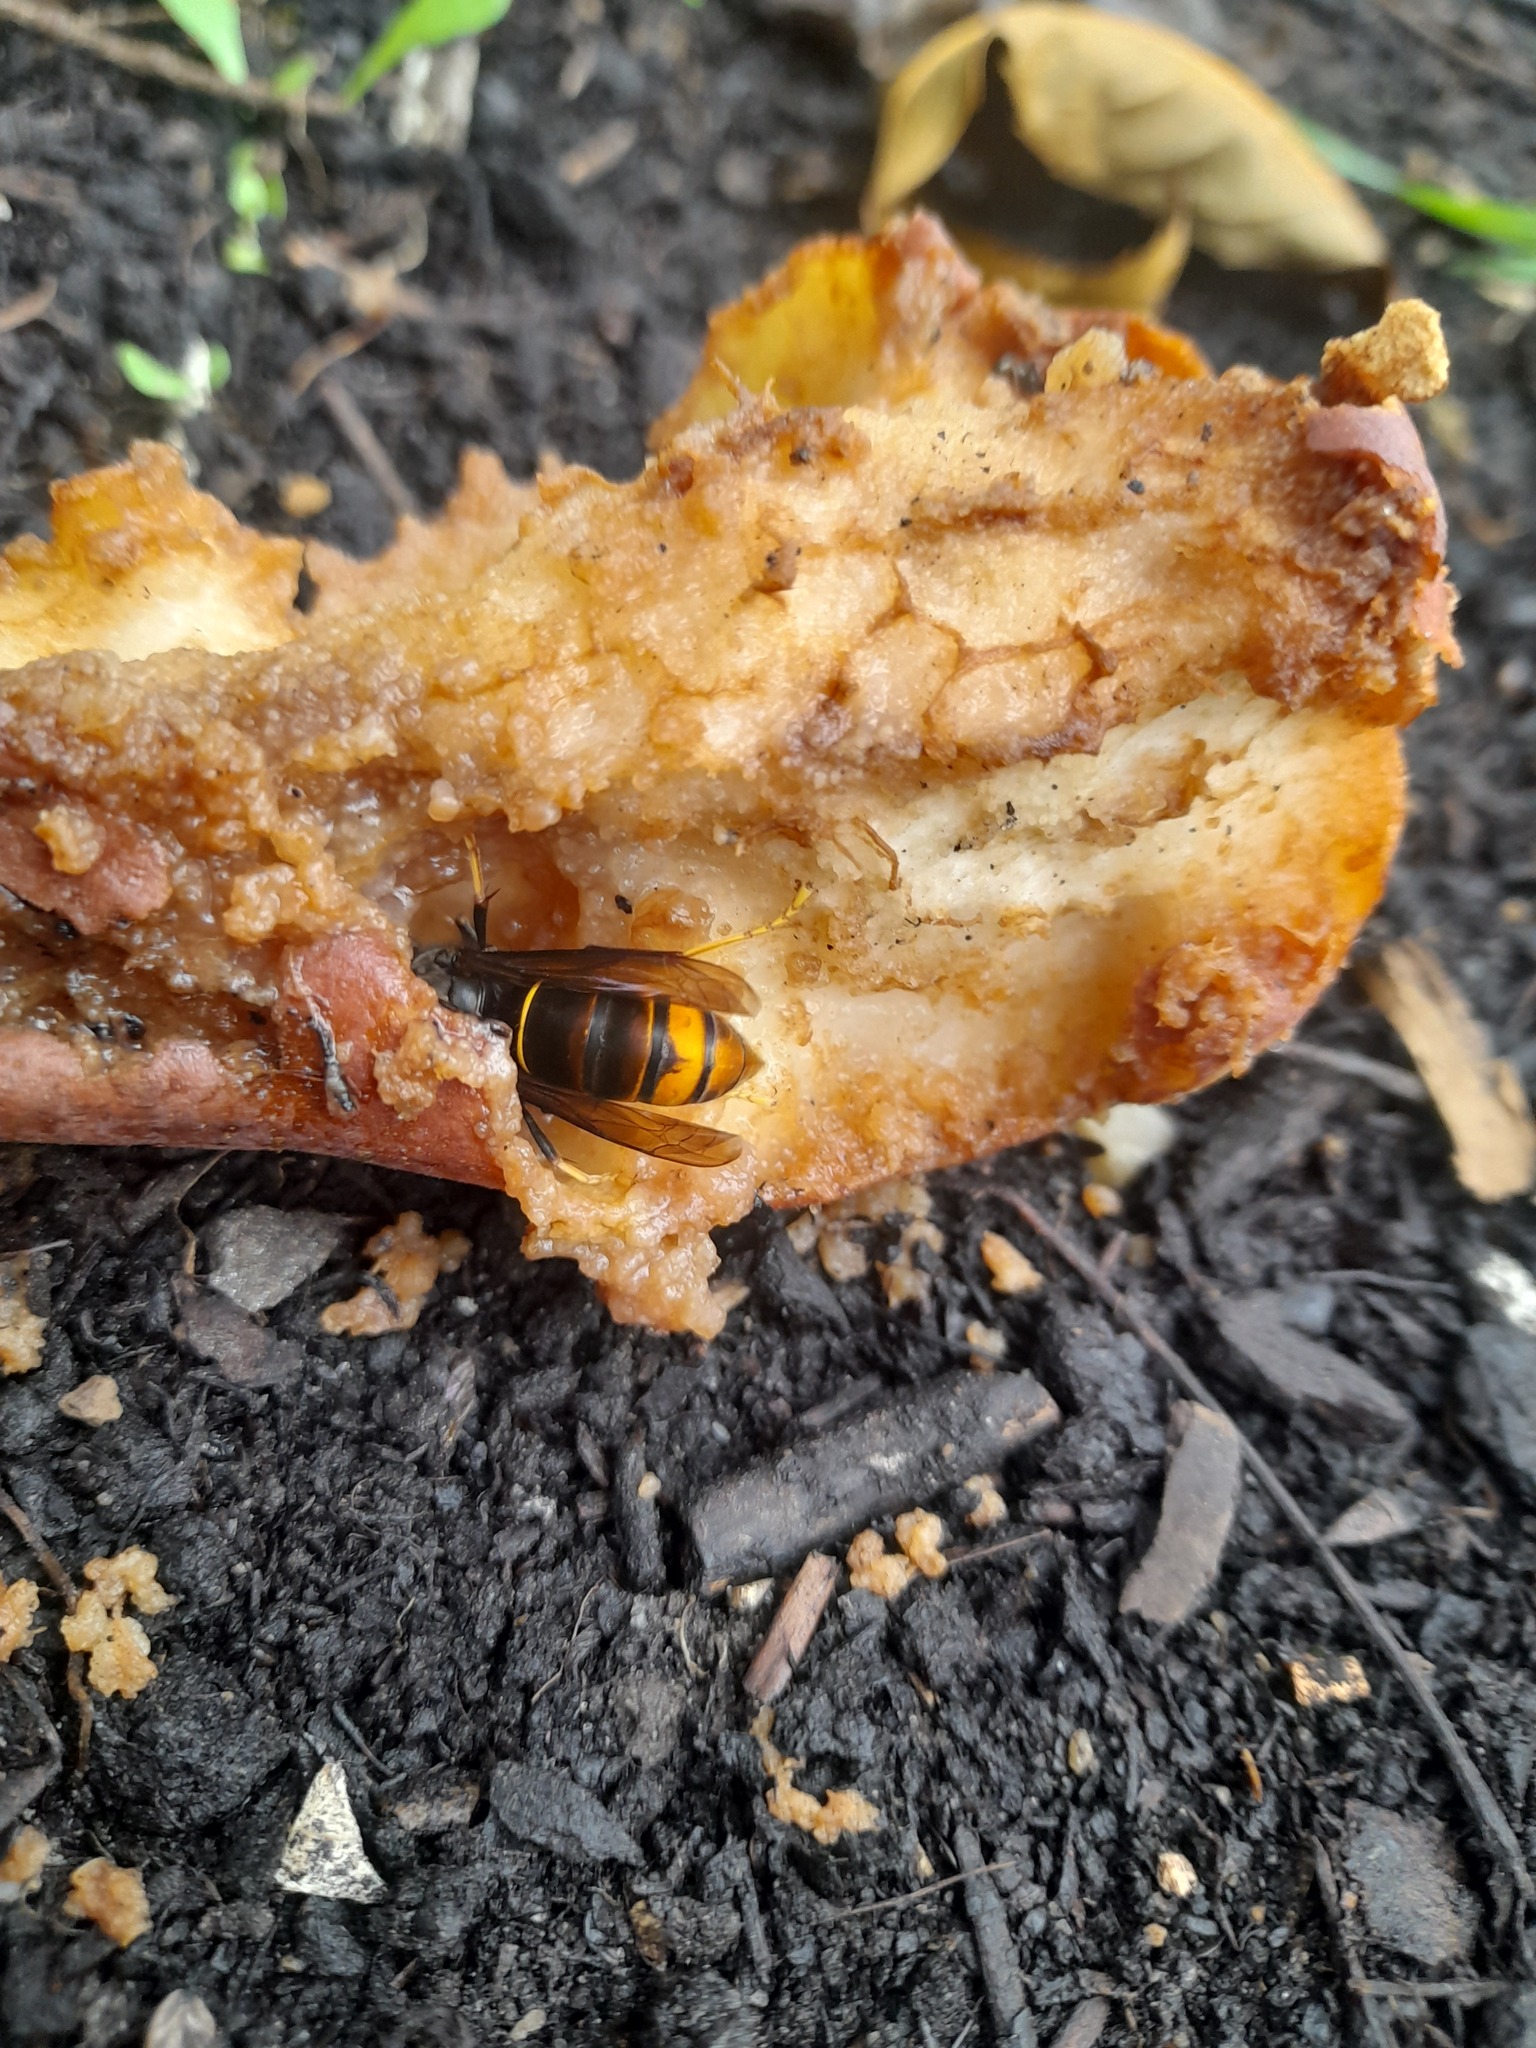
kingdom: Animalia
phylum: Arthropoda
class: Insecta
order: Hymenoptera
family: Vespidae
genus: Vespa
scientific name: Vespa velutina
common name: Asian hornet
